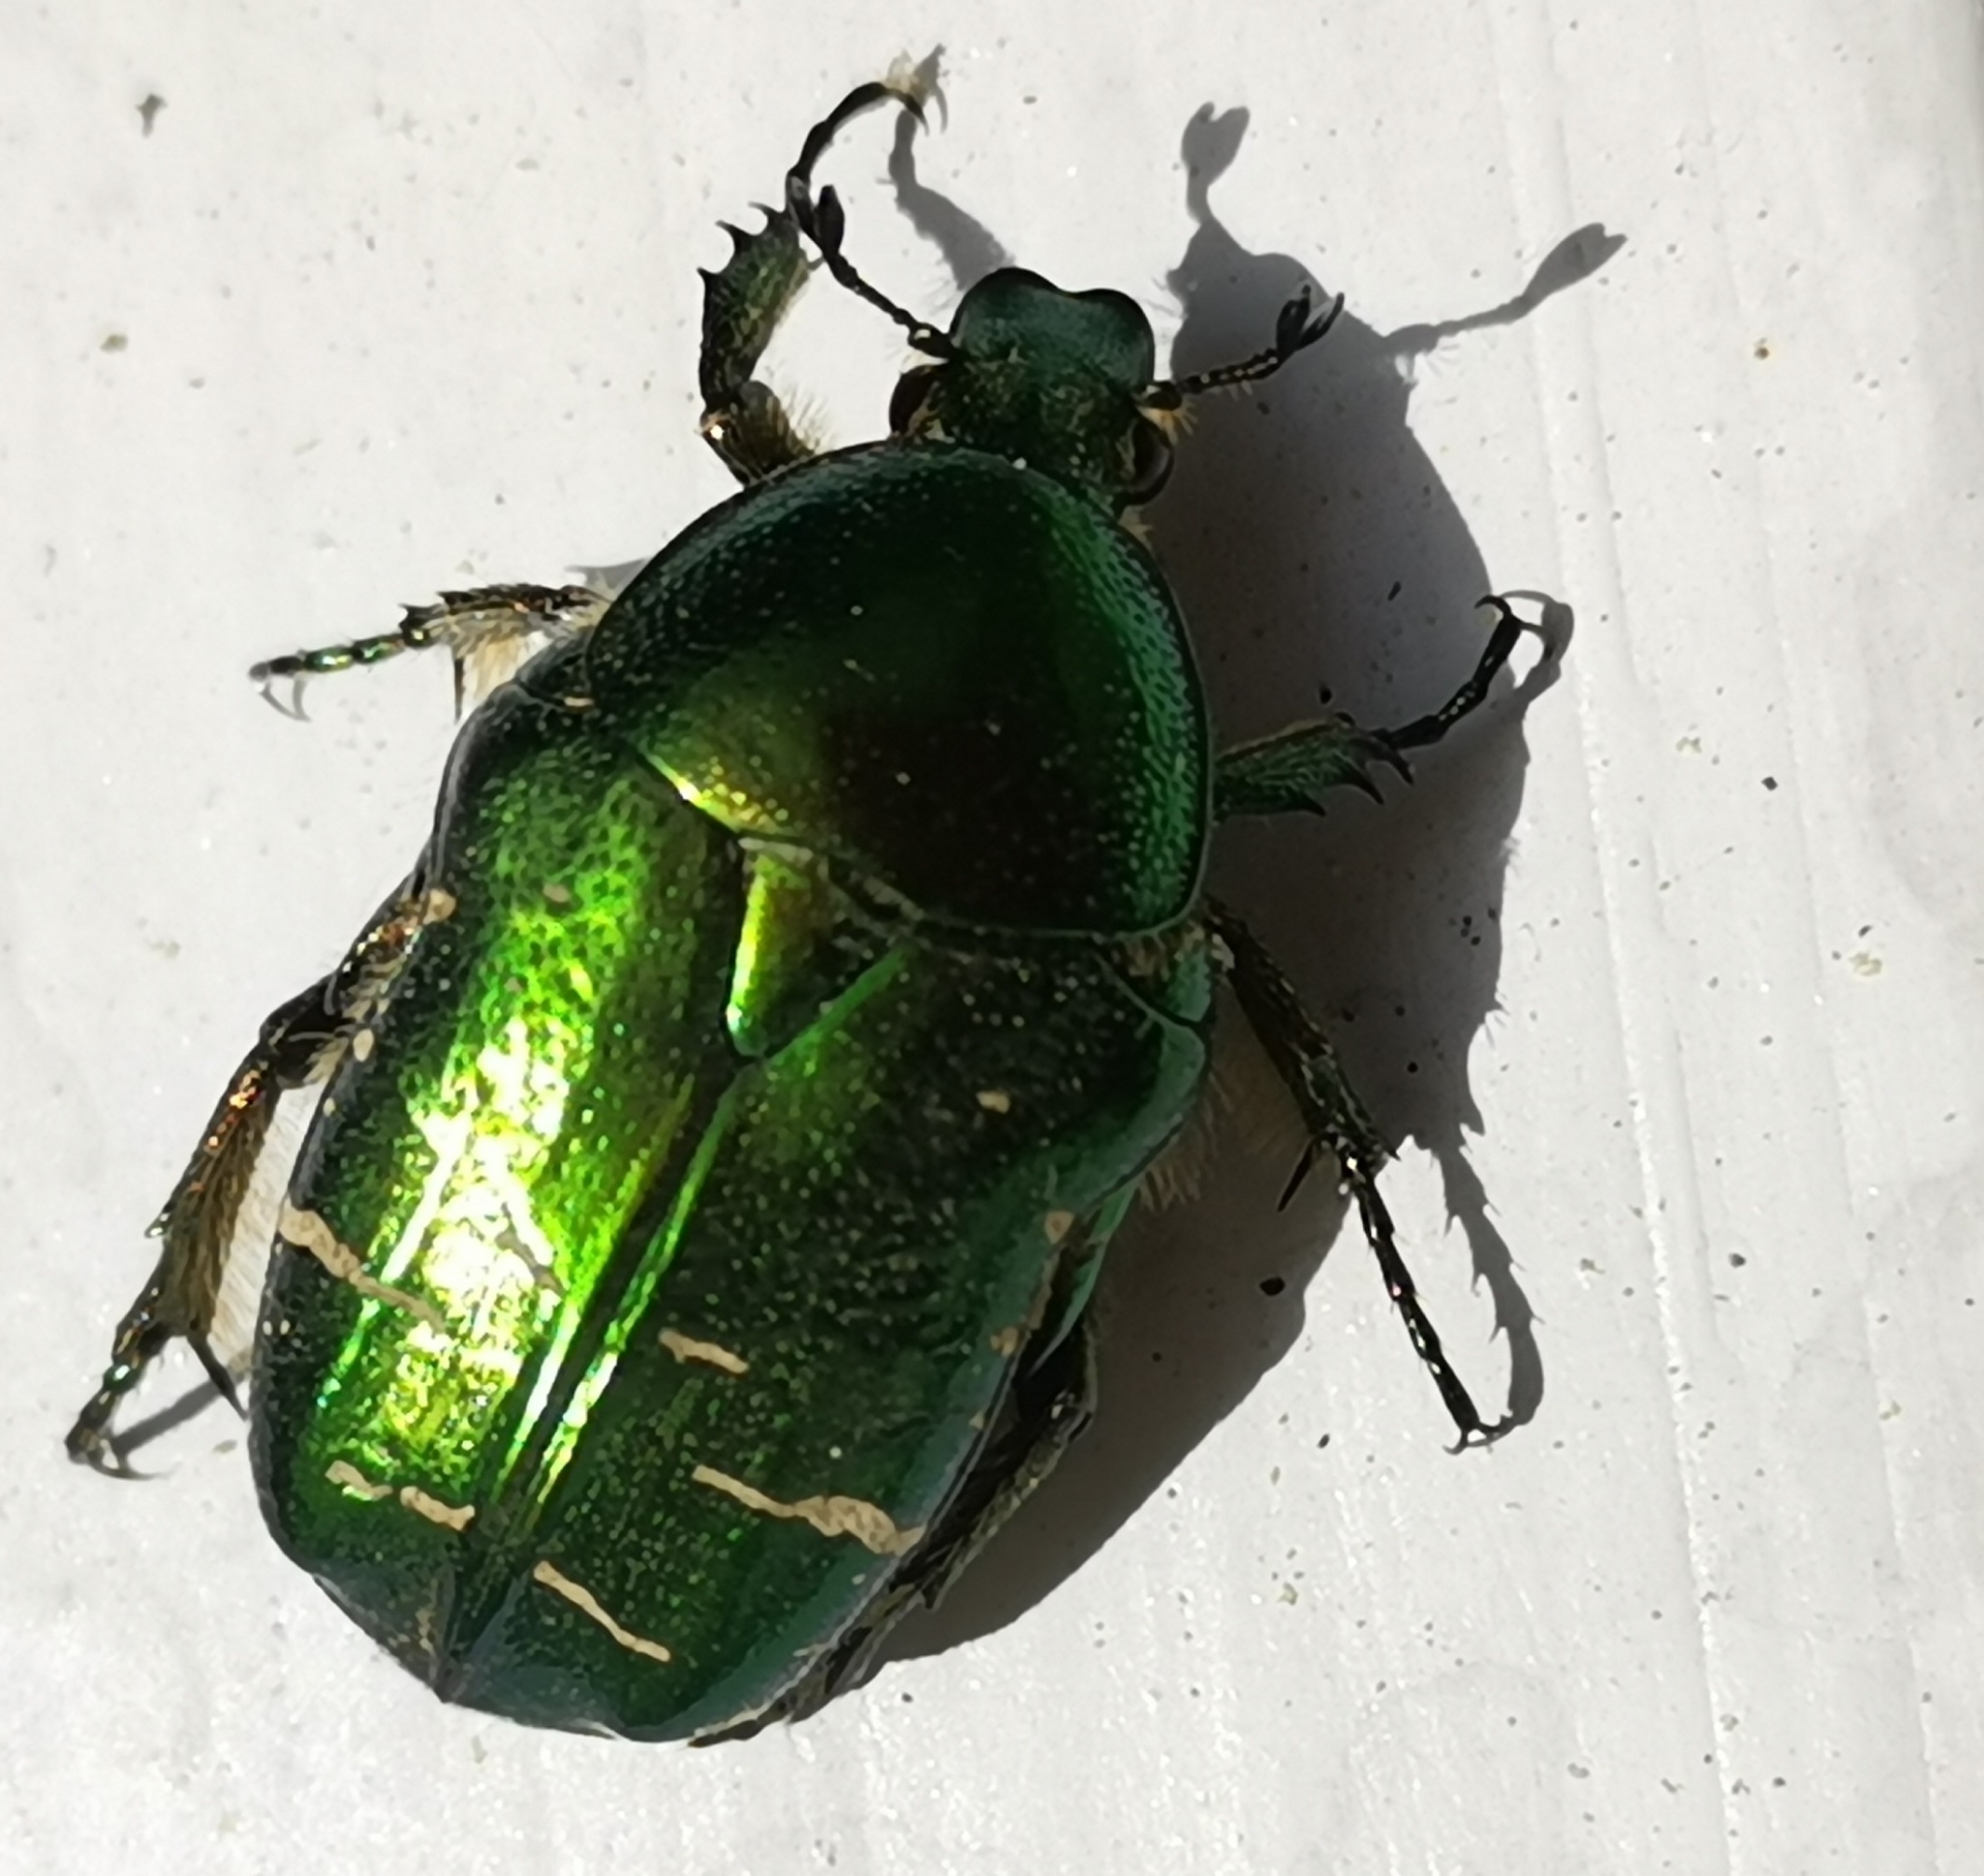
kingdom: Animalia
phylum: Arthropoda
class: Insecta
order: Coleoptera
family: Scarabaeidae
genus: Cetonia
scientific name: Cetonia aurata
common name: Rose chafer
